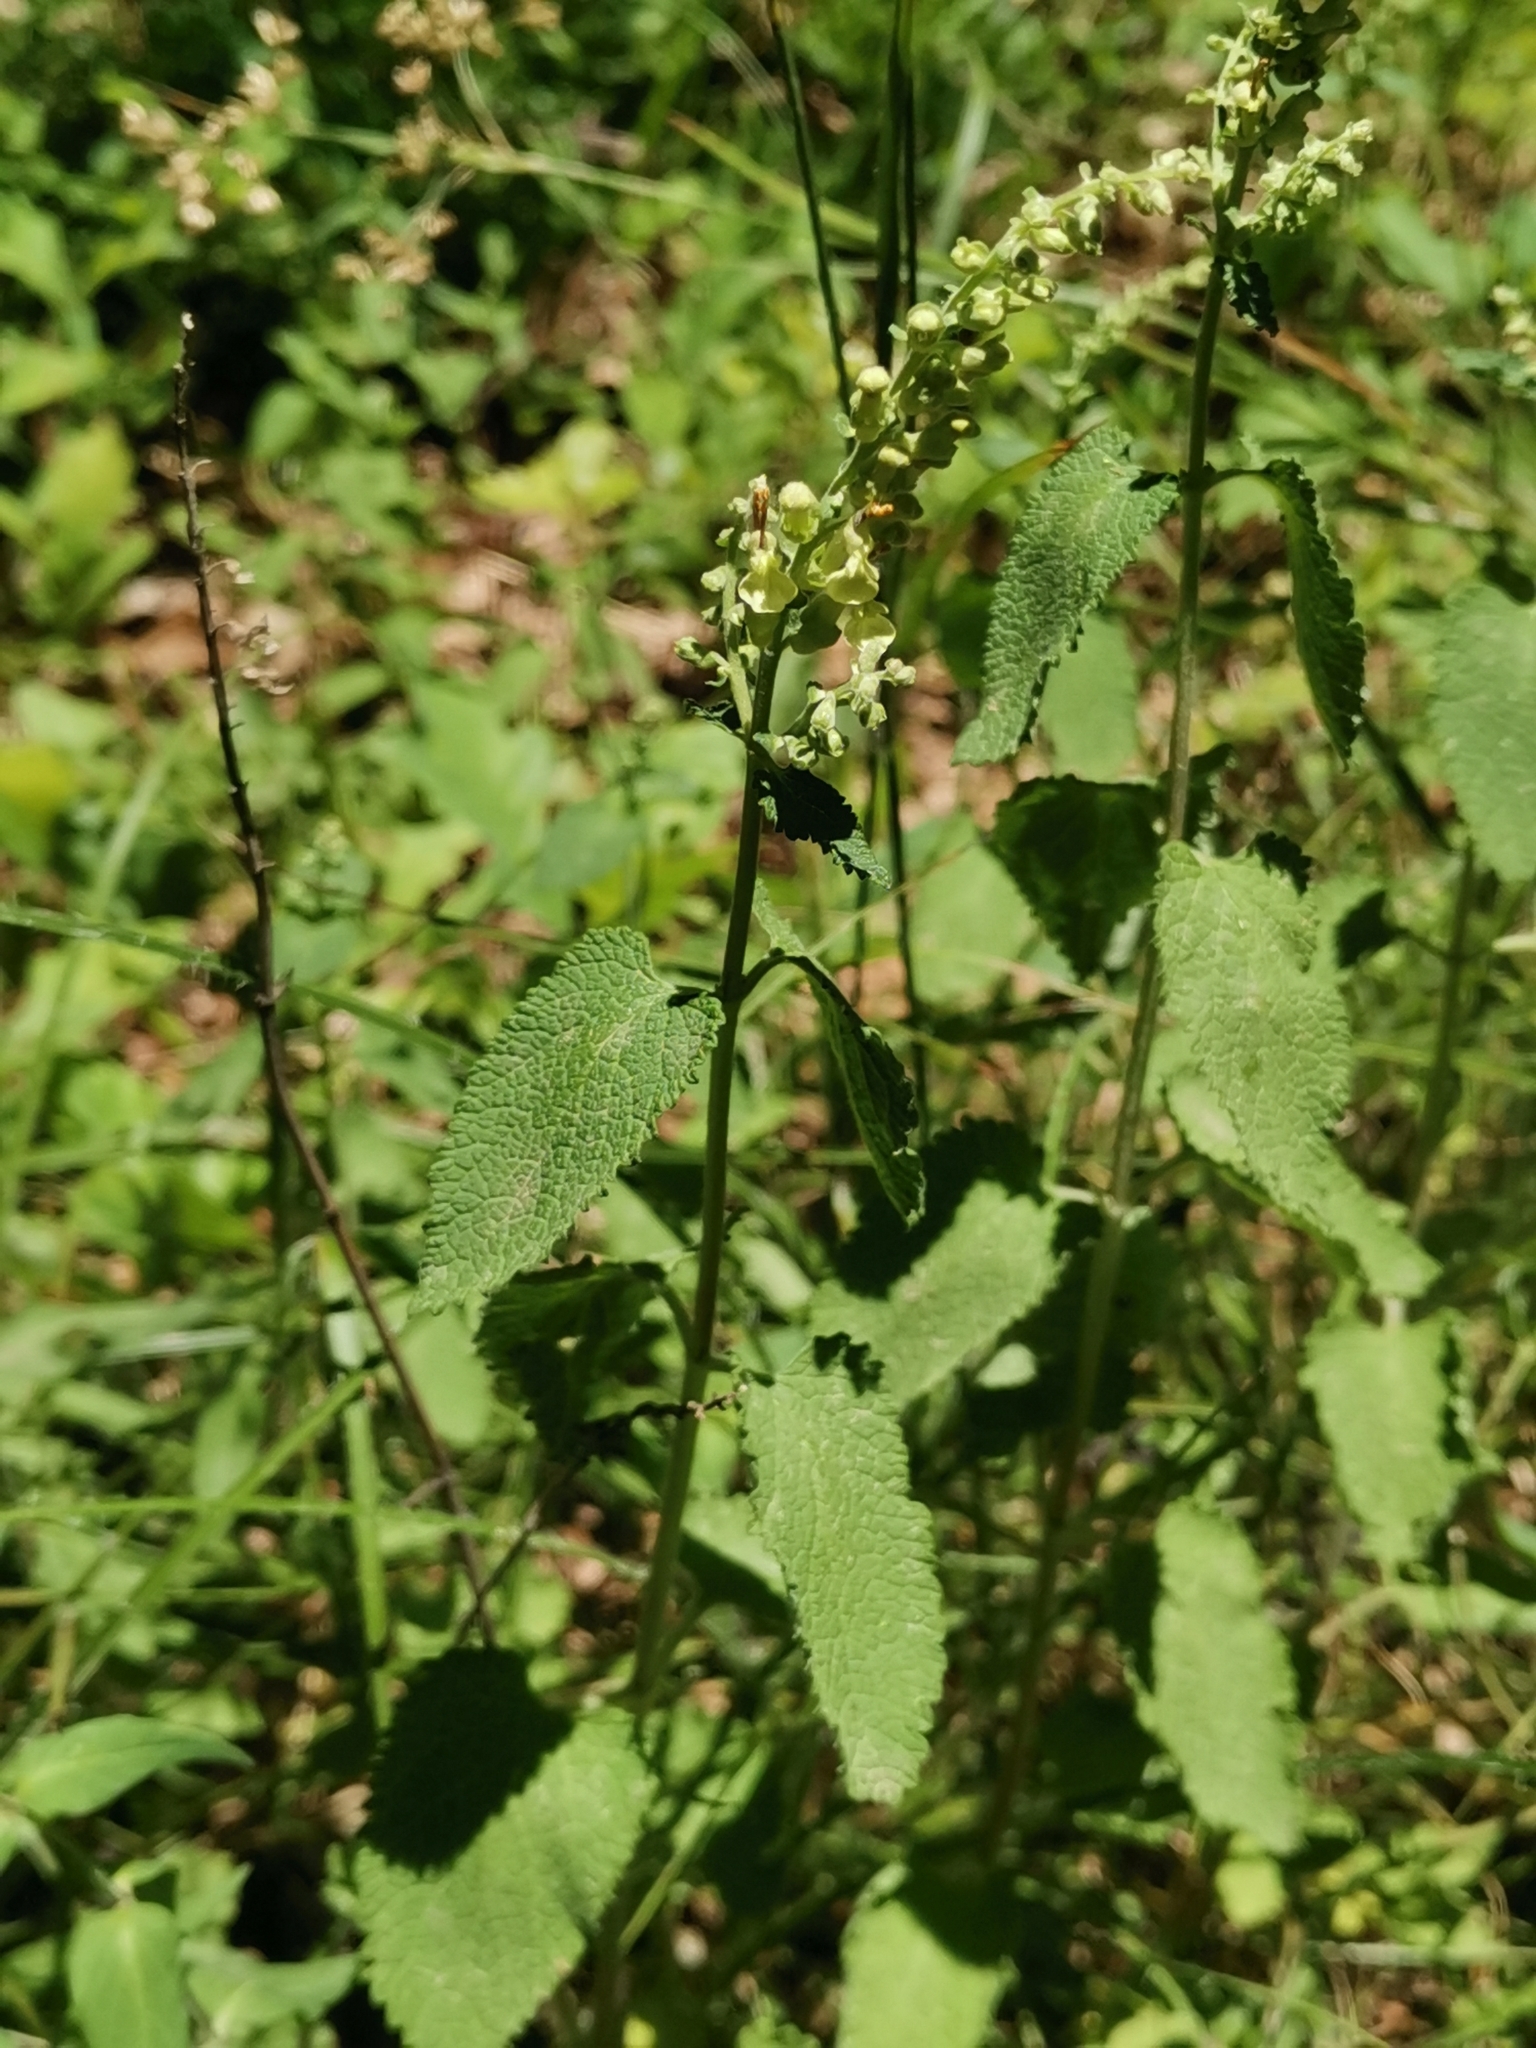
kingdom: Plantae
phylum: Tracheophyta
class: Magnoliopsida
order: Lamiales
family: Lamiaceae
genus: Teucrium
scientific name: Teucrium scorodonia
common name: Woodland germander
